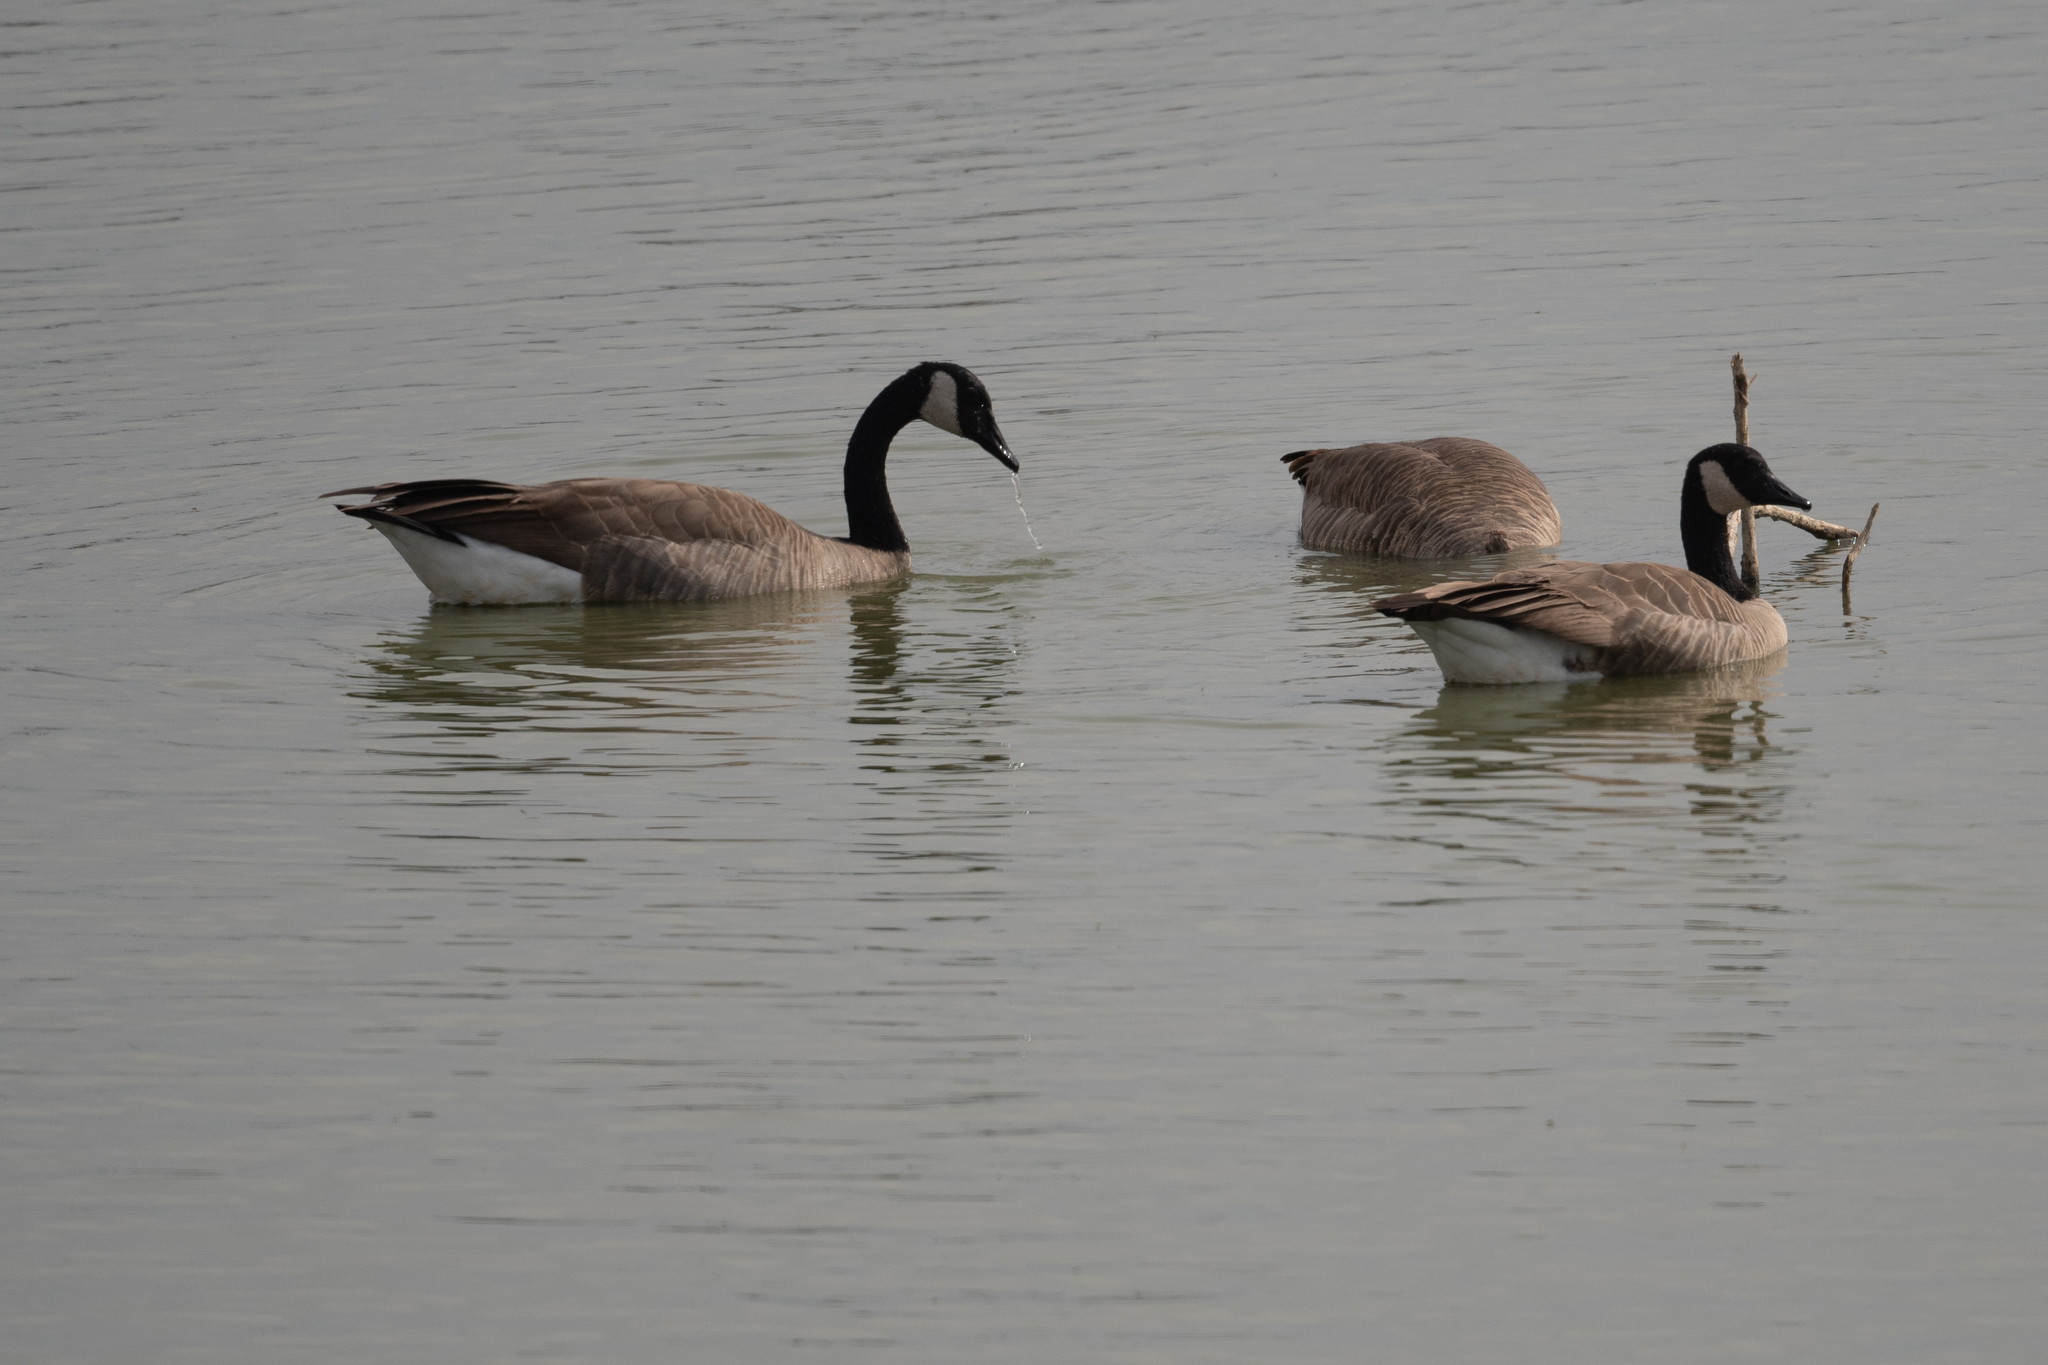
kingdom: Animalia
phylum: Chordata
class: Aves
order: Anseriformes
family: Anatidae
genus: Branta
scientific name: Branta canadensis
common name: Canada goose
